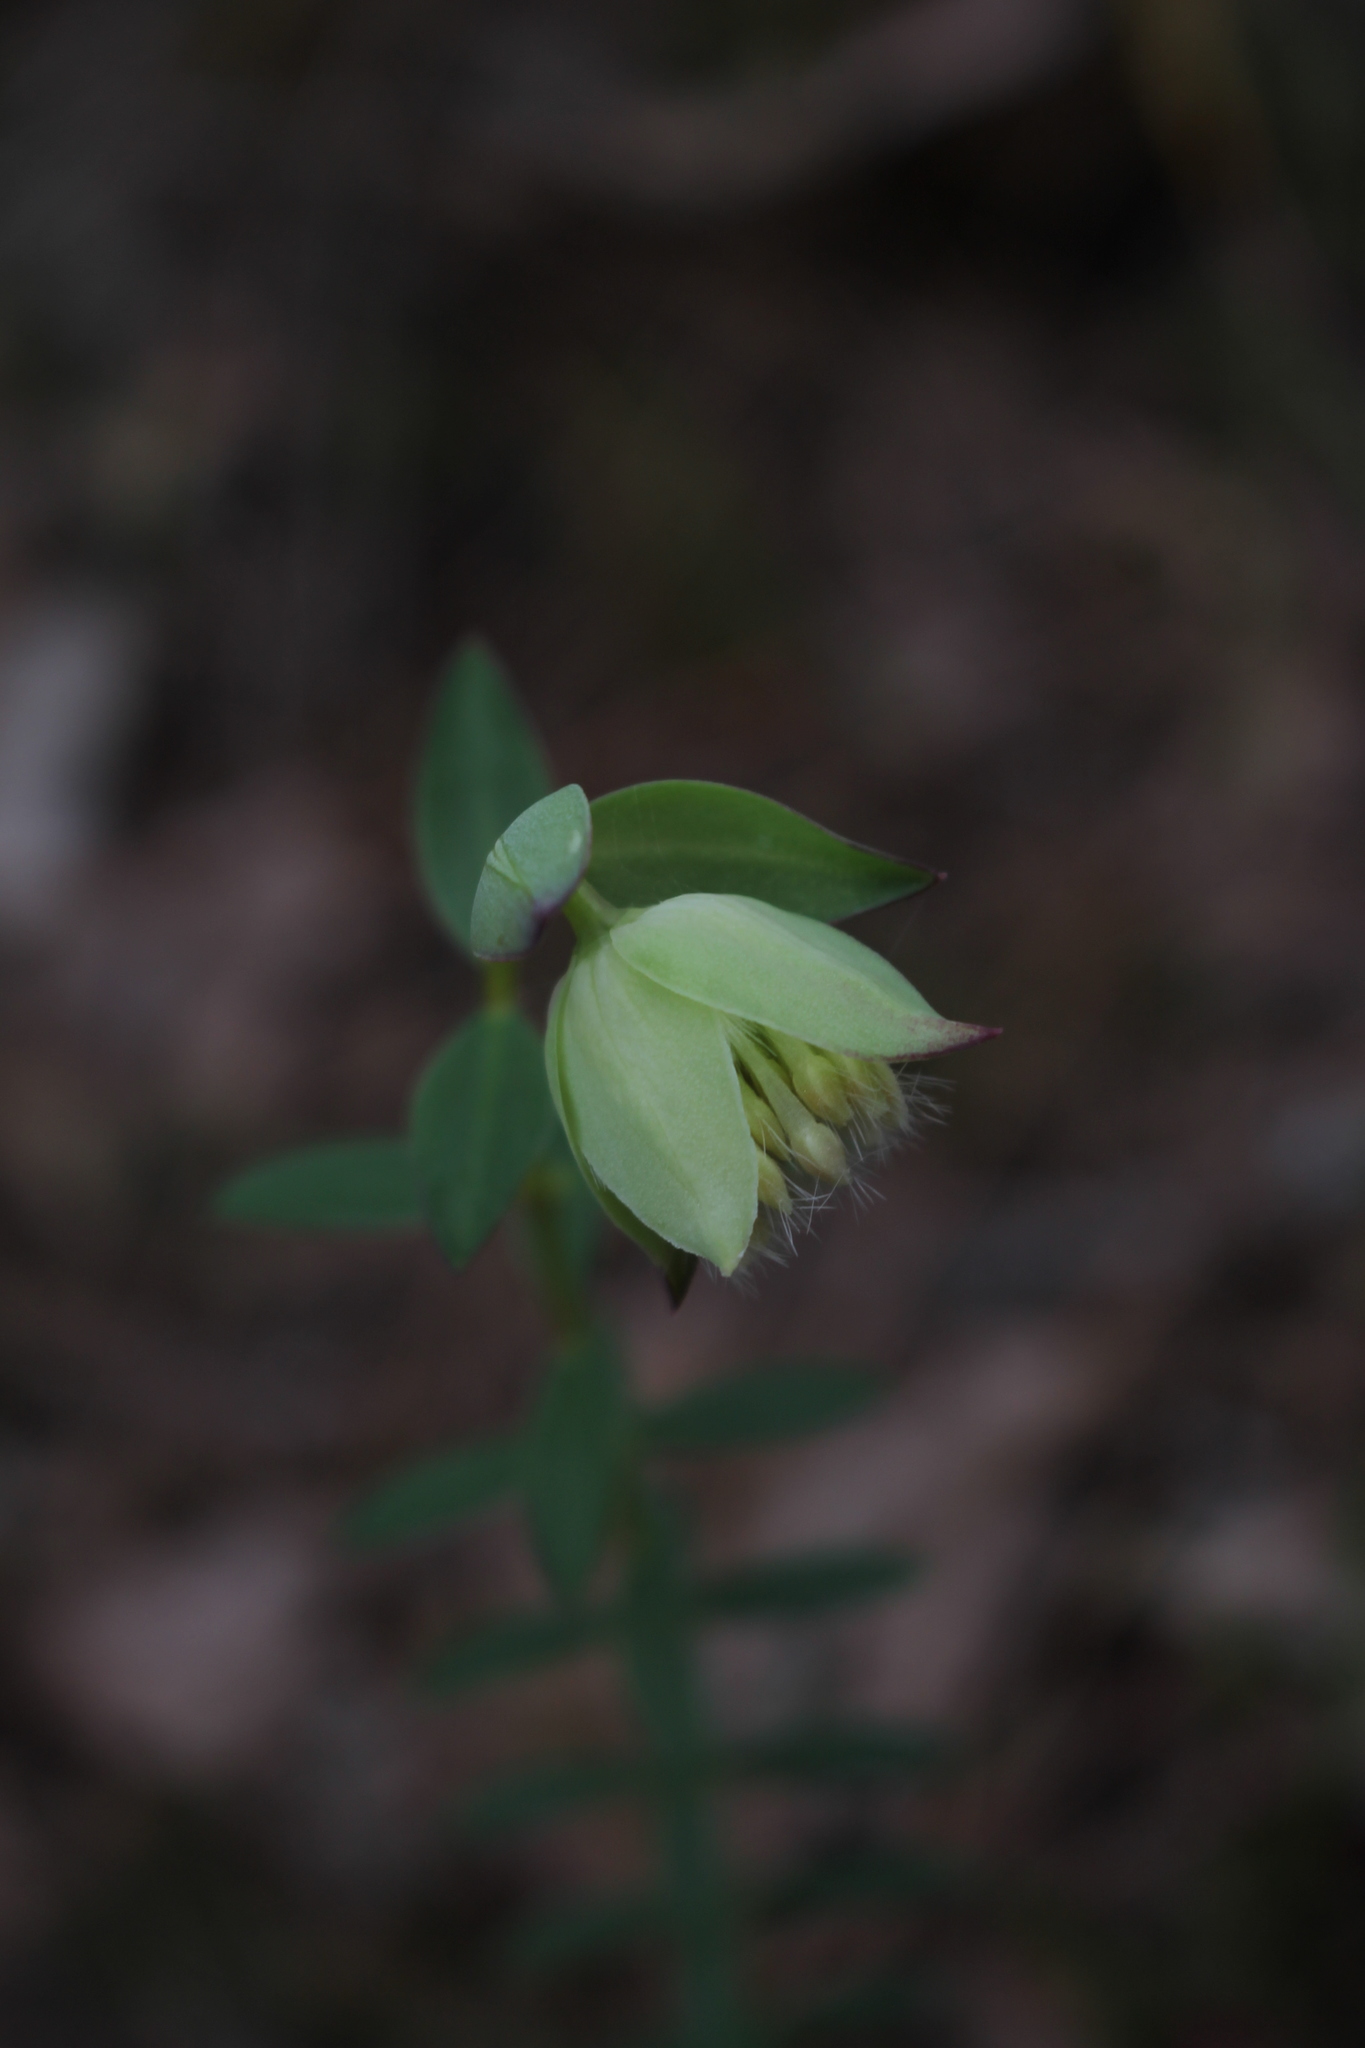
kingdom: Plantae
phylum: Tracheophyta
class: Magnoliopsida
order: Malvales
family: Thymelaeaceae
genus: Pimelea
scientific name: Pimelea lehmanniana
